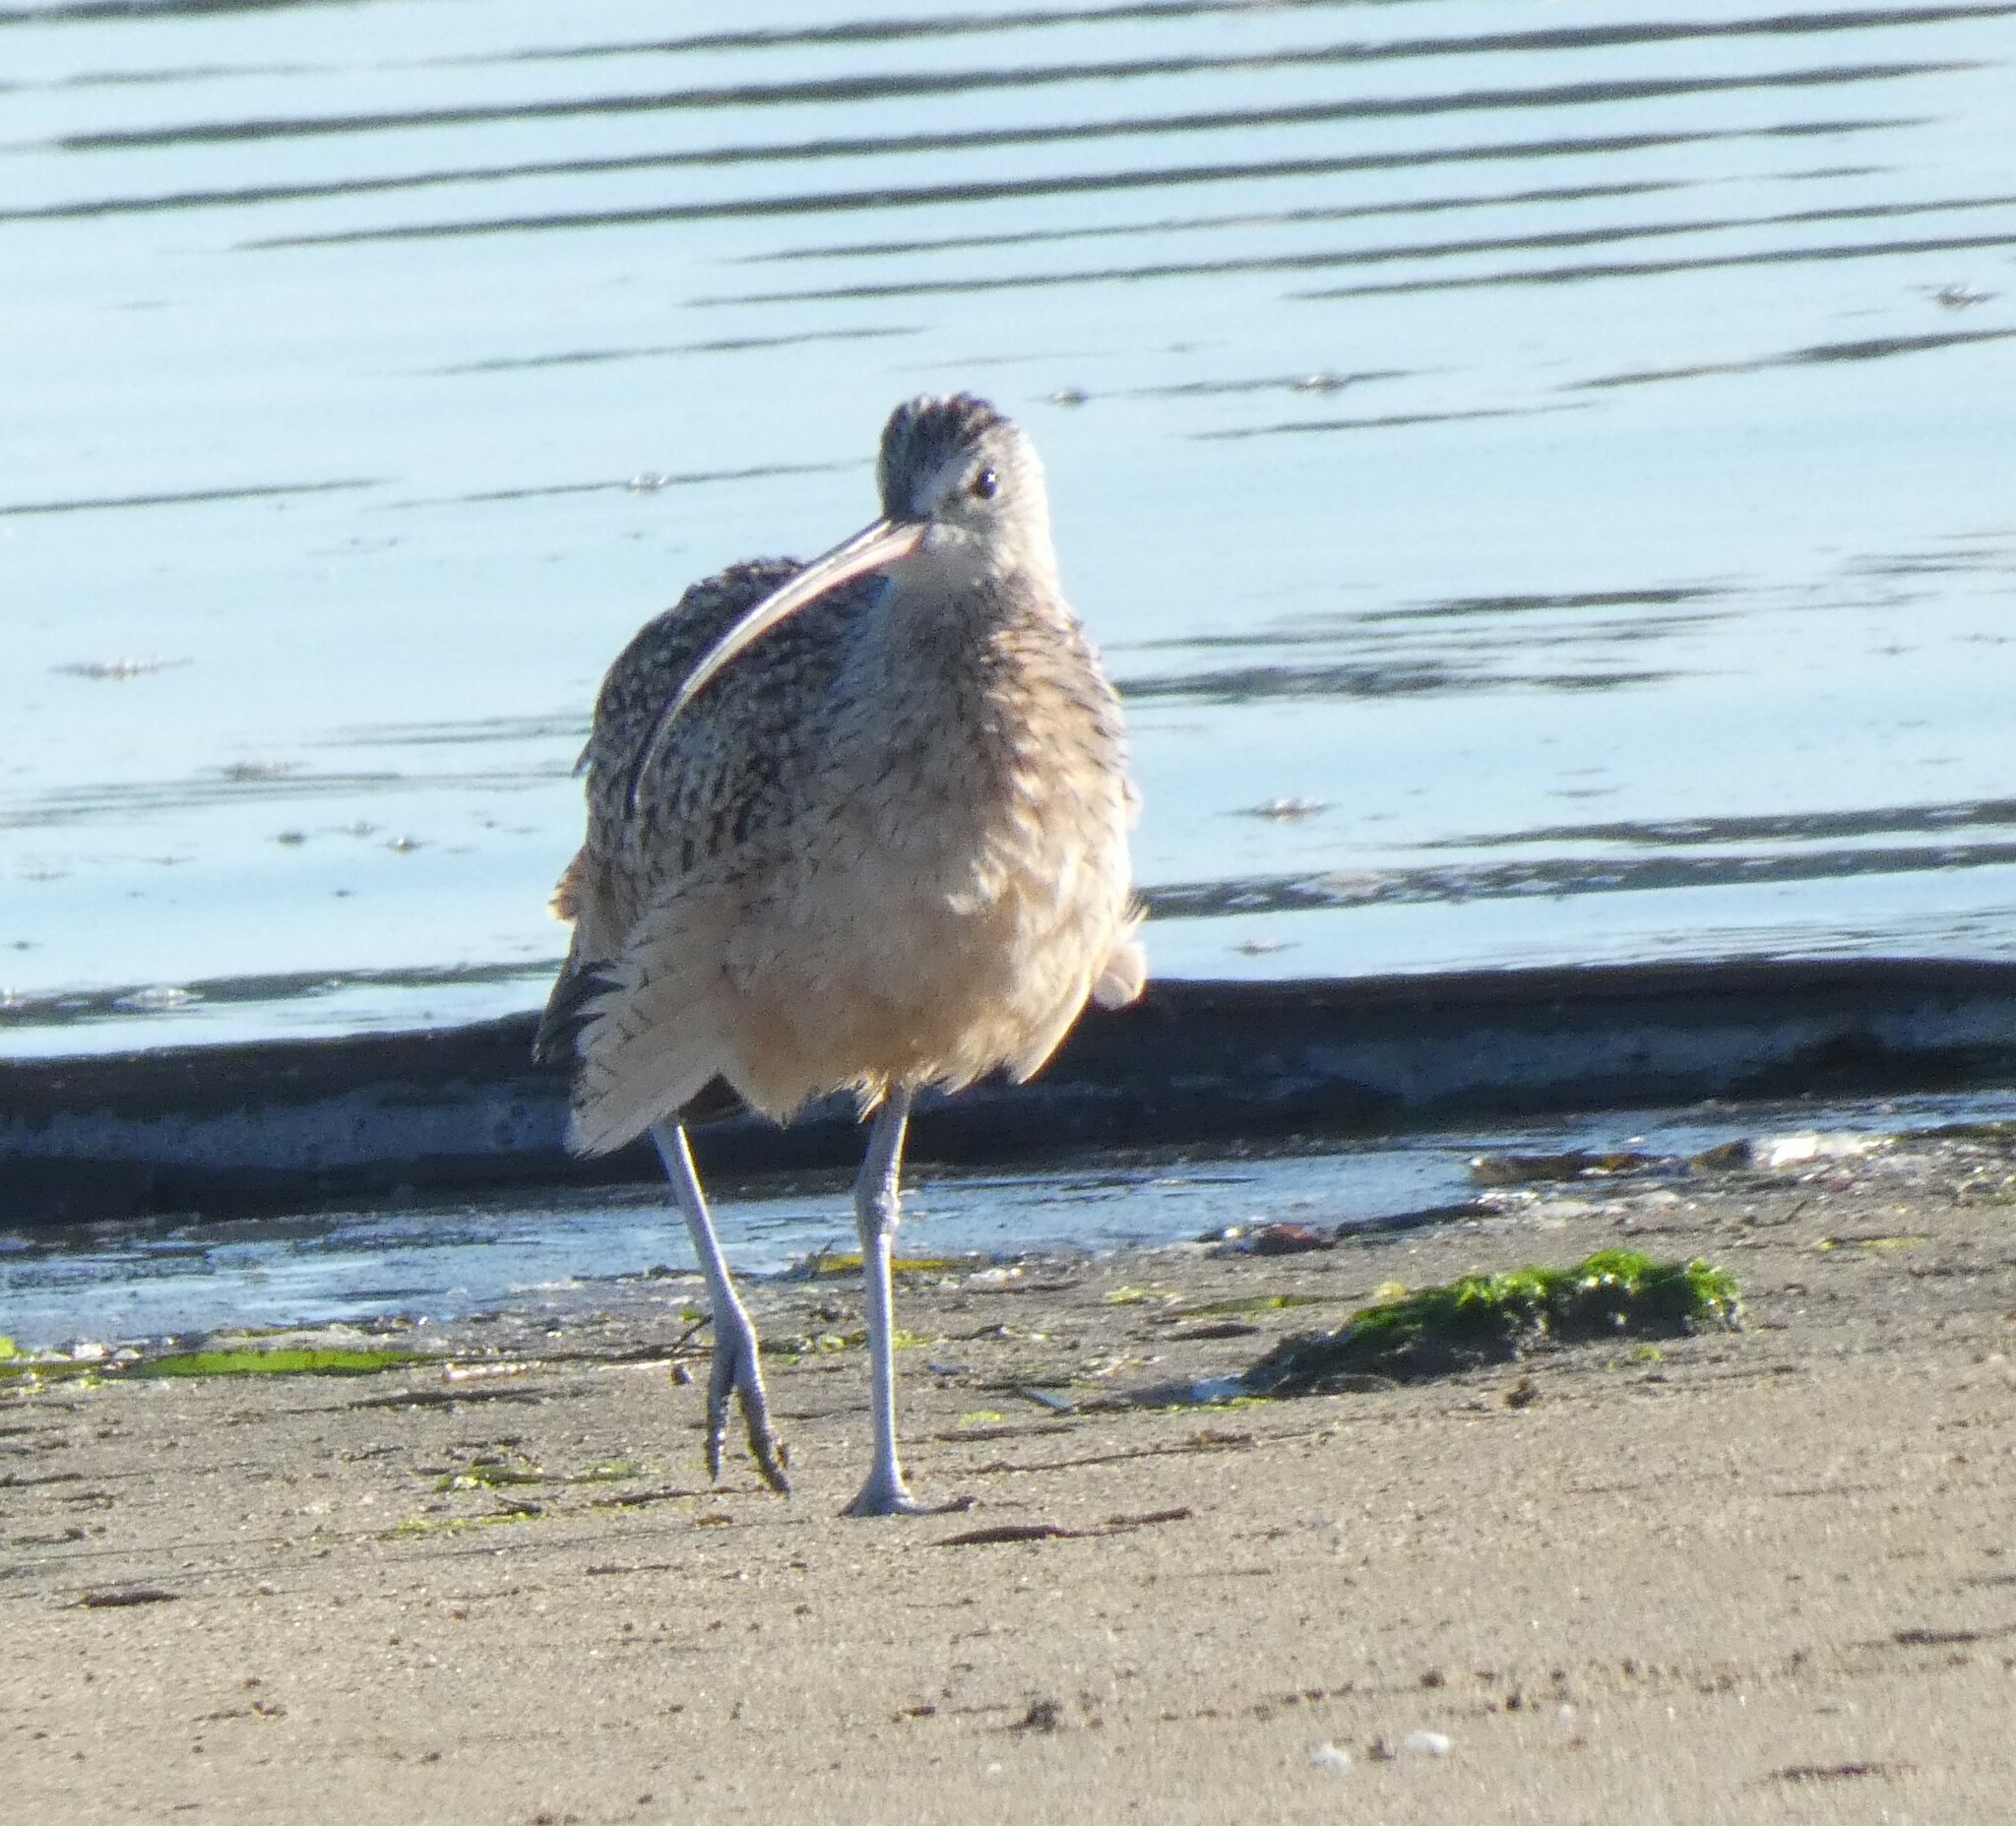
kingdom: Animalia
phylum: Chordata
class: Aves
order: Charadriiformes
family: Scolopacidae
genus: Numenius
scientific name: Numenius americanus
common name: Long-billed curlew
